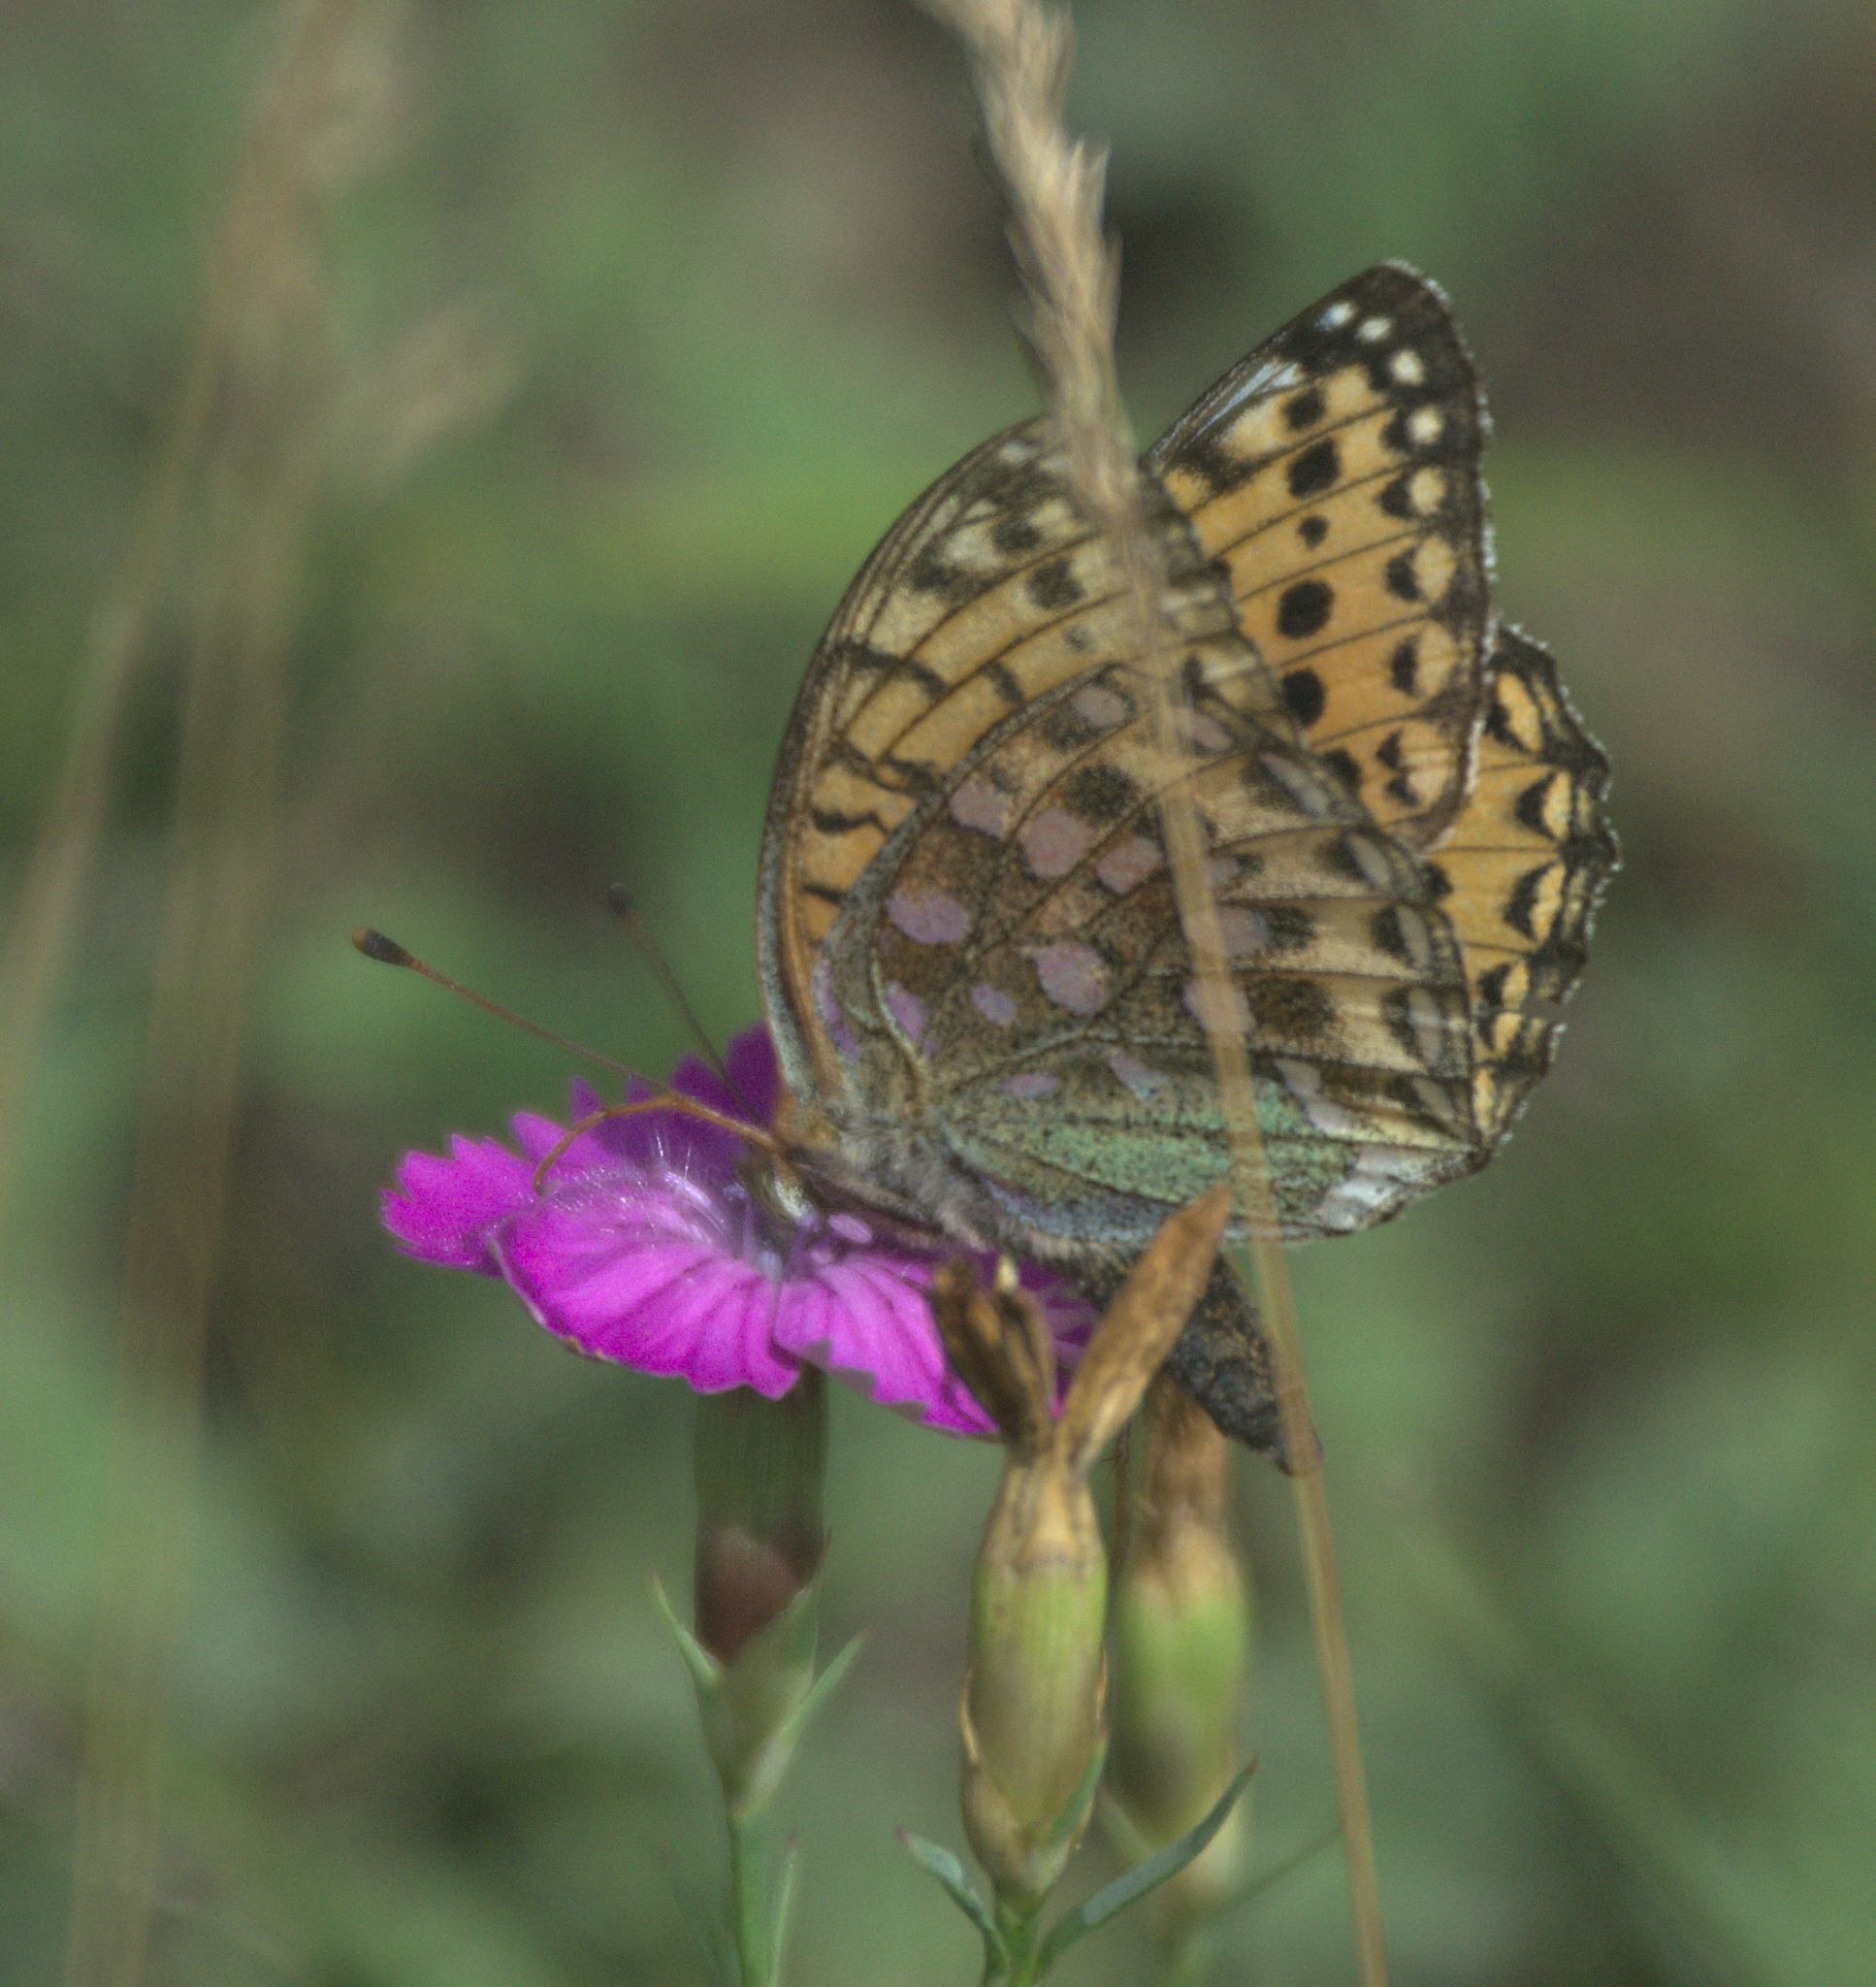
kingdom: Animalia
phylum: Arthropoda
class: Insecta
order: Lepidoptera
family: Nymphalidae
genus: Speyeria
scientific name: Speyeria aglaja
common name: Dark green fritillary
